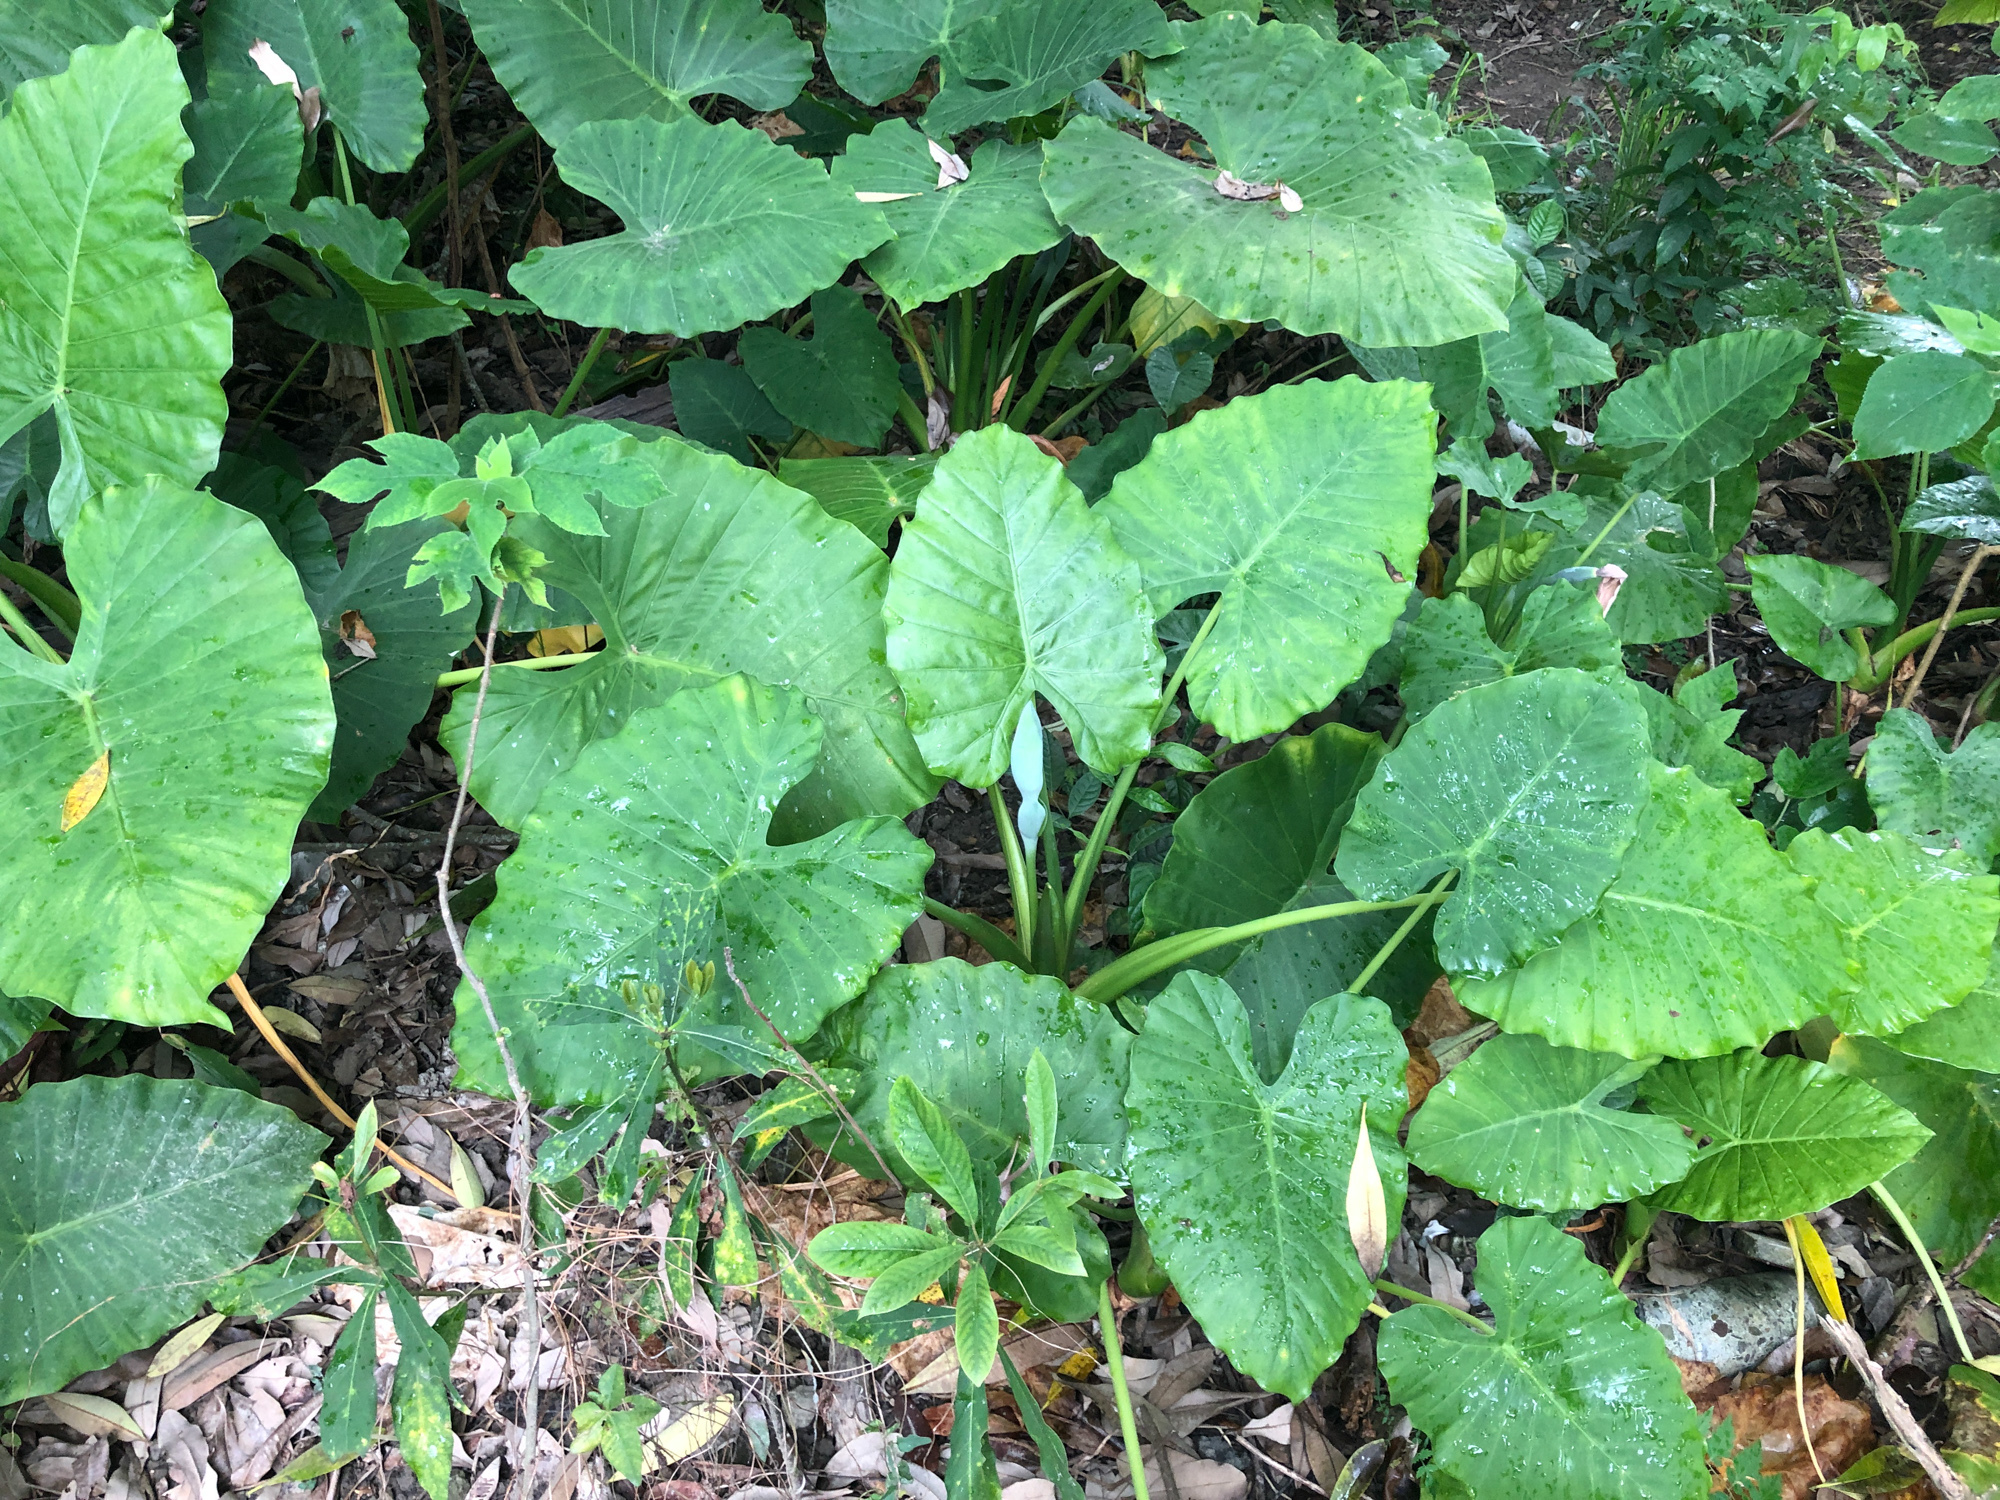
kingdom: Plantae
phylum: Tracheophyta
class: Liliopsida
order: Alismatales
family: Araceae
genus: Alocasia
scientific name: Alocasia odora
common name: Asian taro
